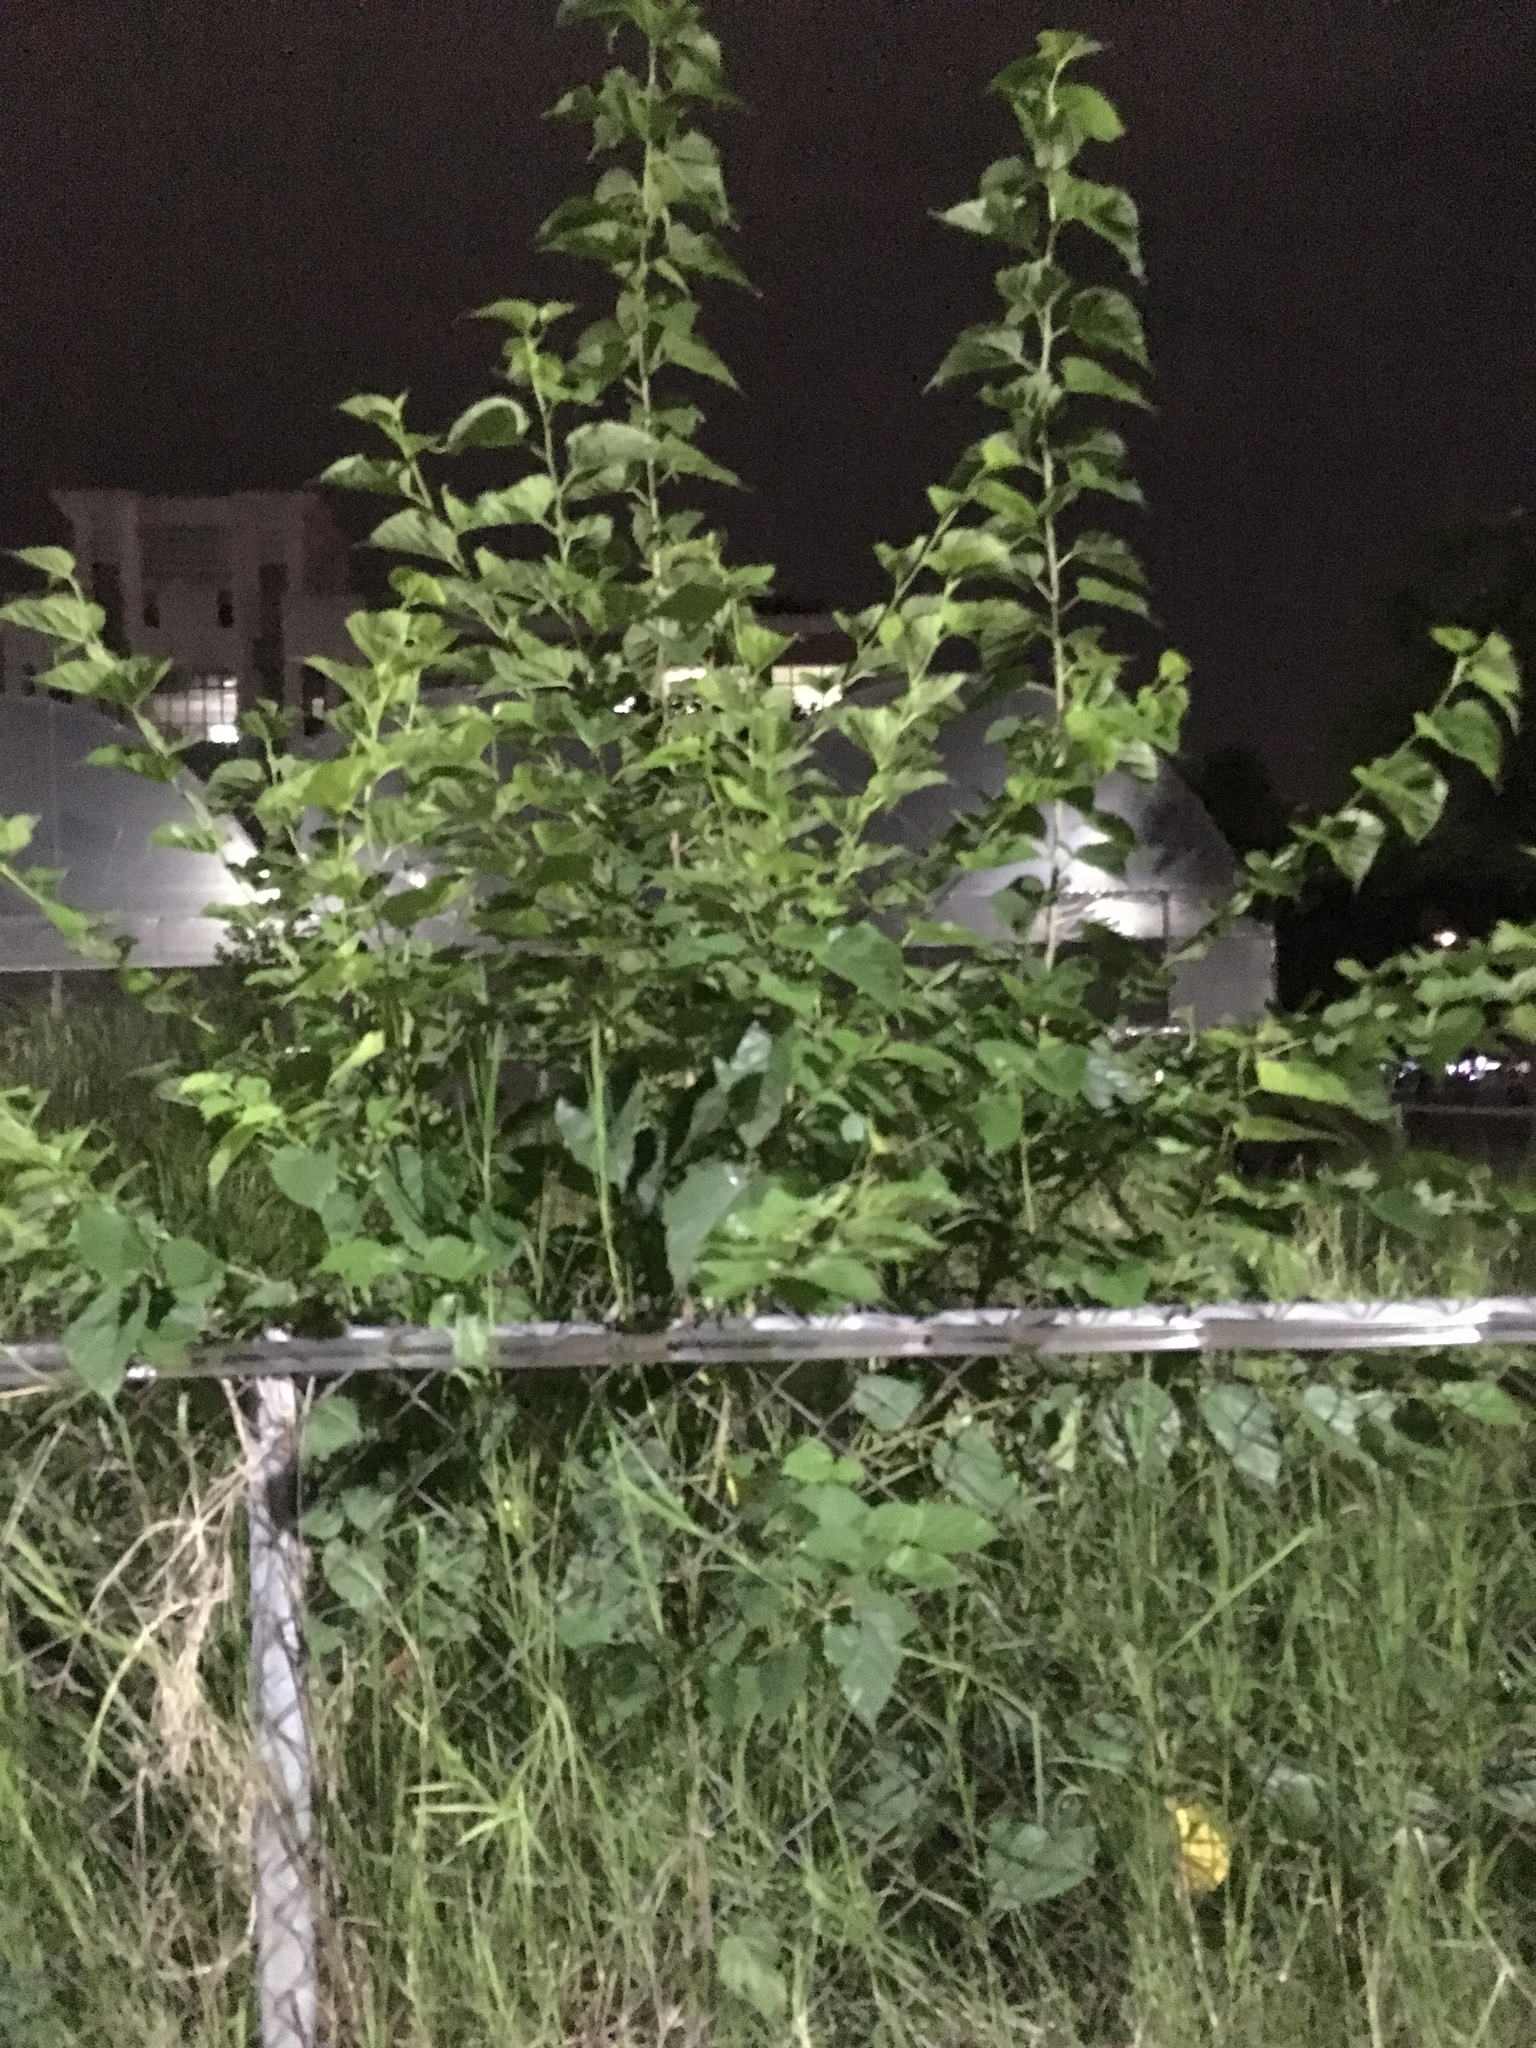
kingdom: Plantae
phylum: Tracheophyta
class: Magnoliopsida
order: Rosales
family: Moraceae
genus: Morus
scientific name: Morus indica
